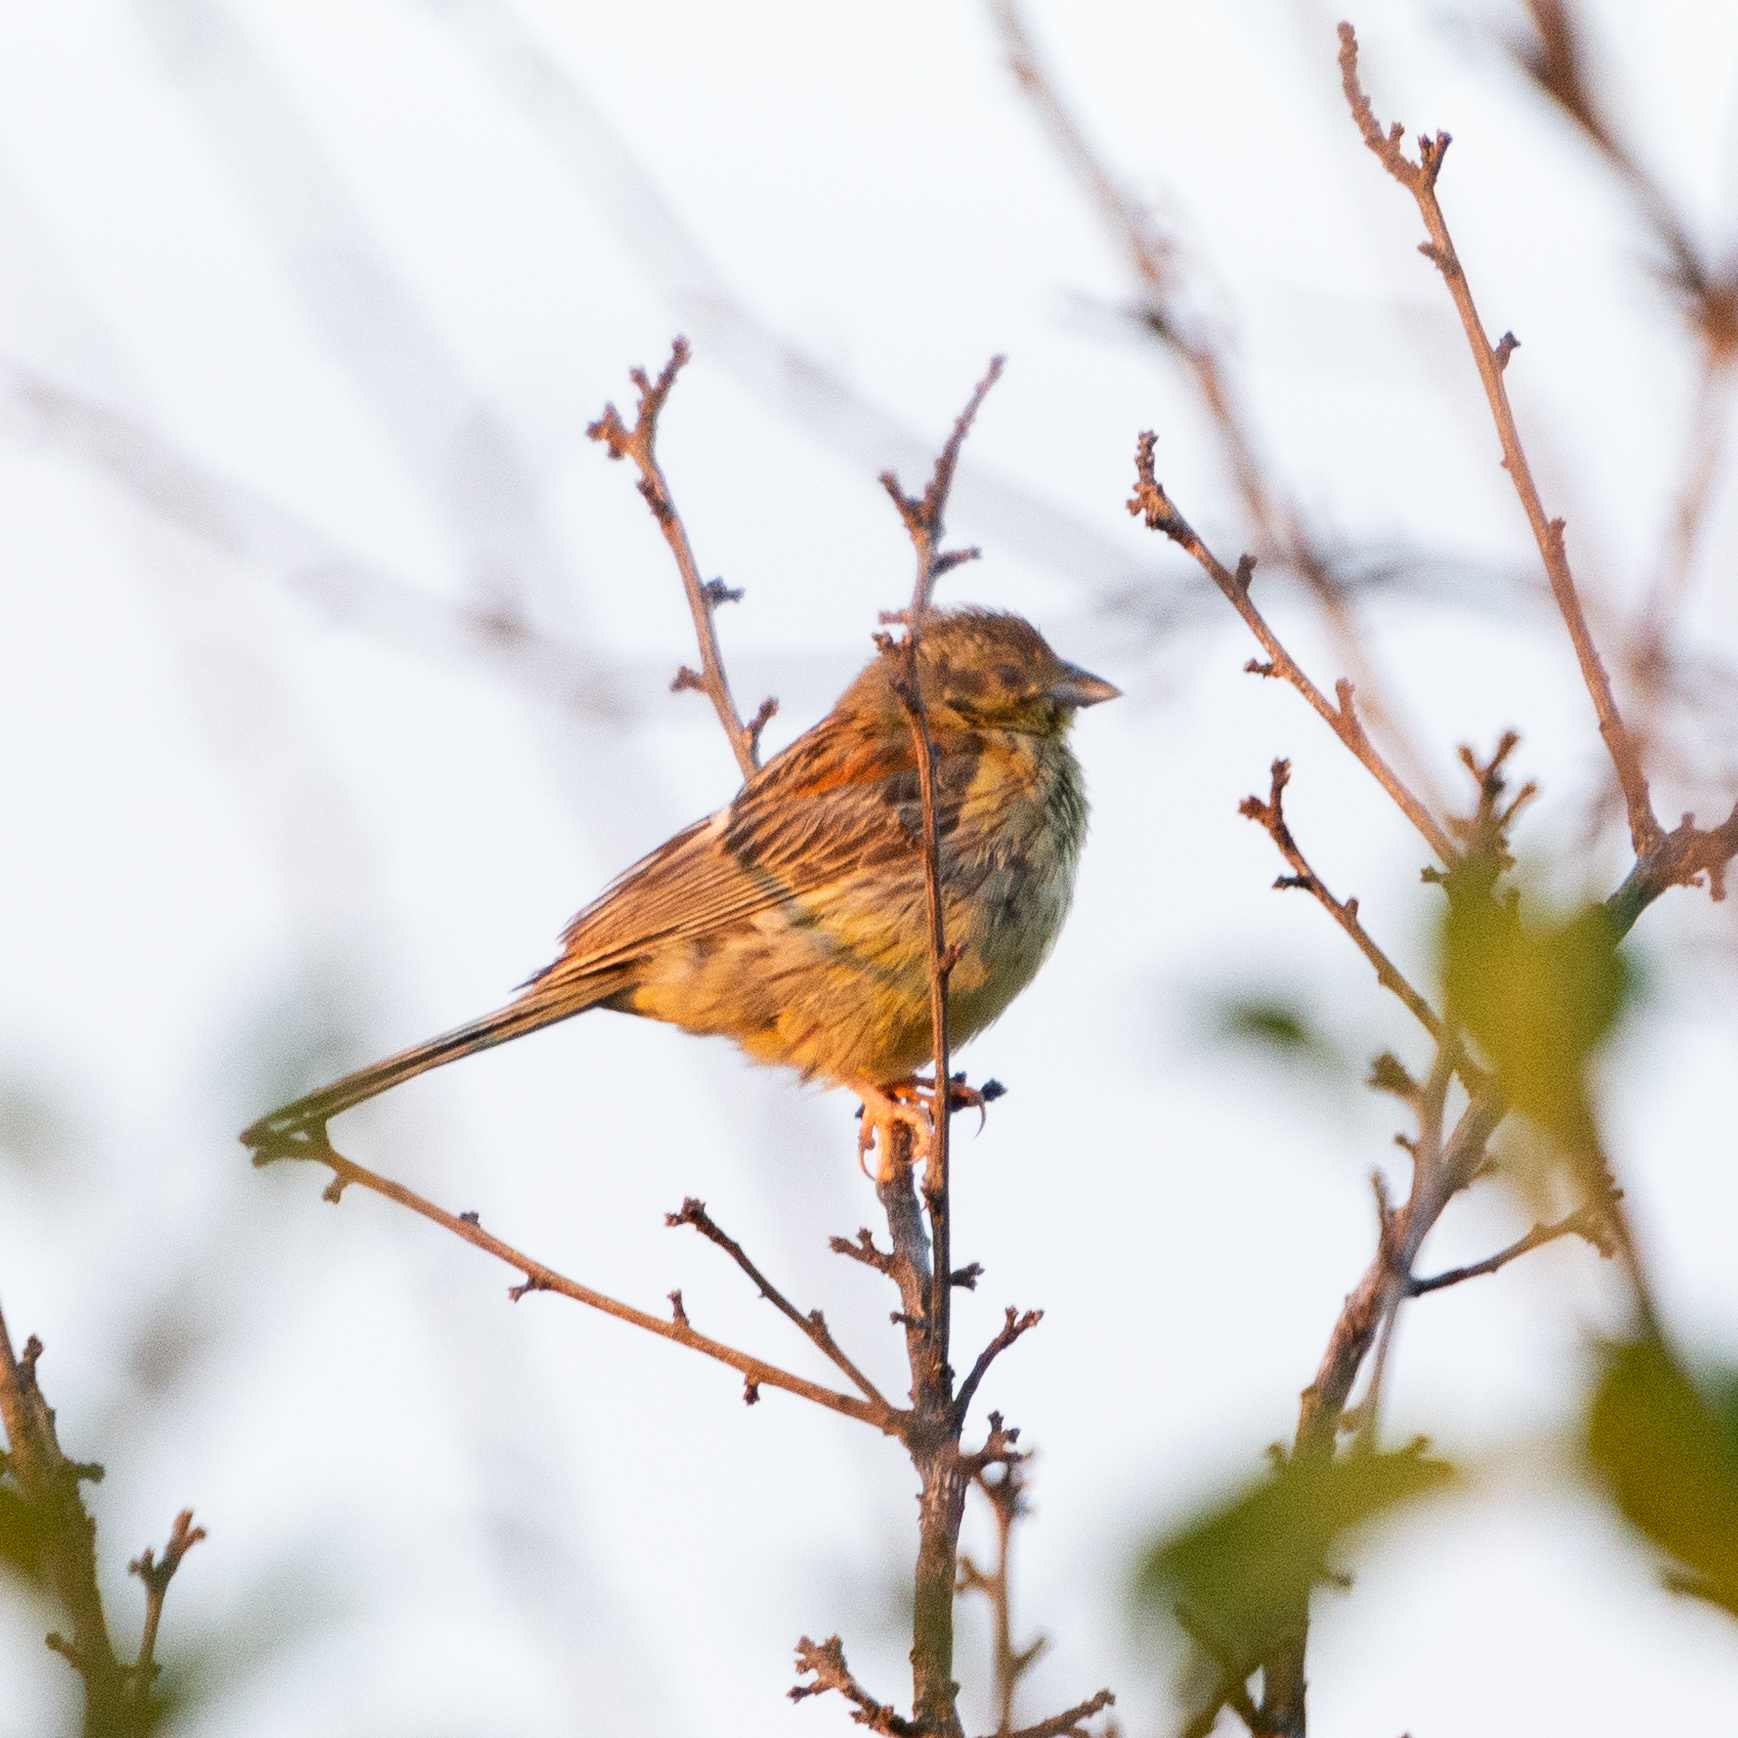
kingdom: Animalia
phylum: Chordata
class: Aves
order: Passeriformes
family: Emberizidae
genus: Emberiza
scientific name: Emberiza cirlus
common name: Cirl bunting
